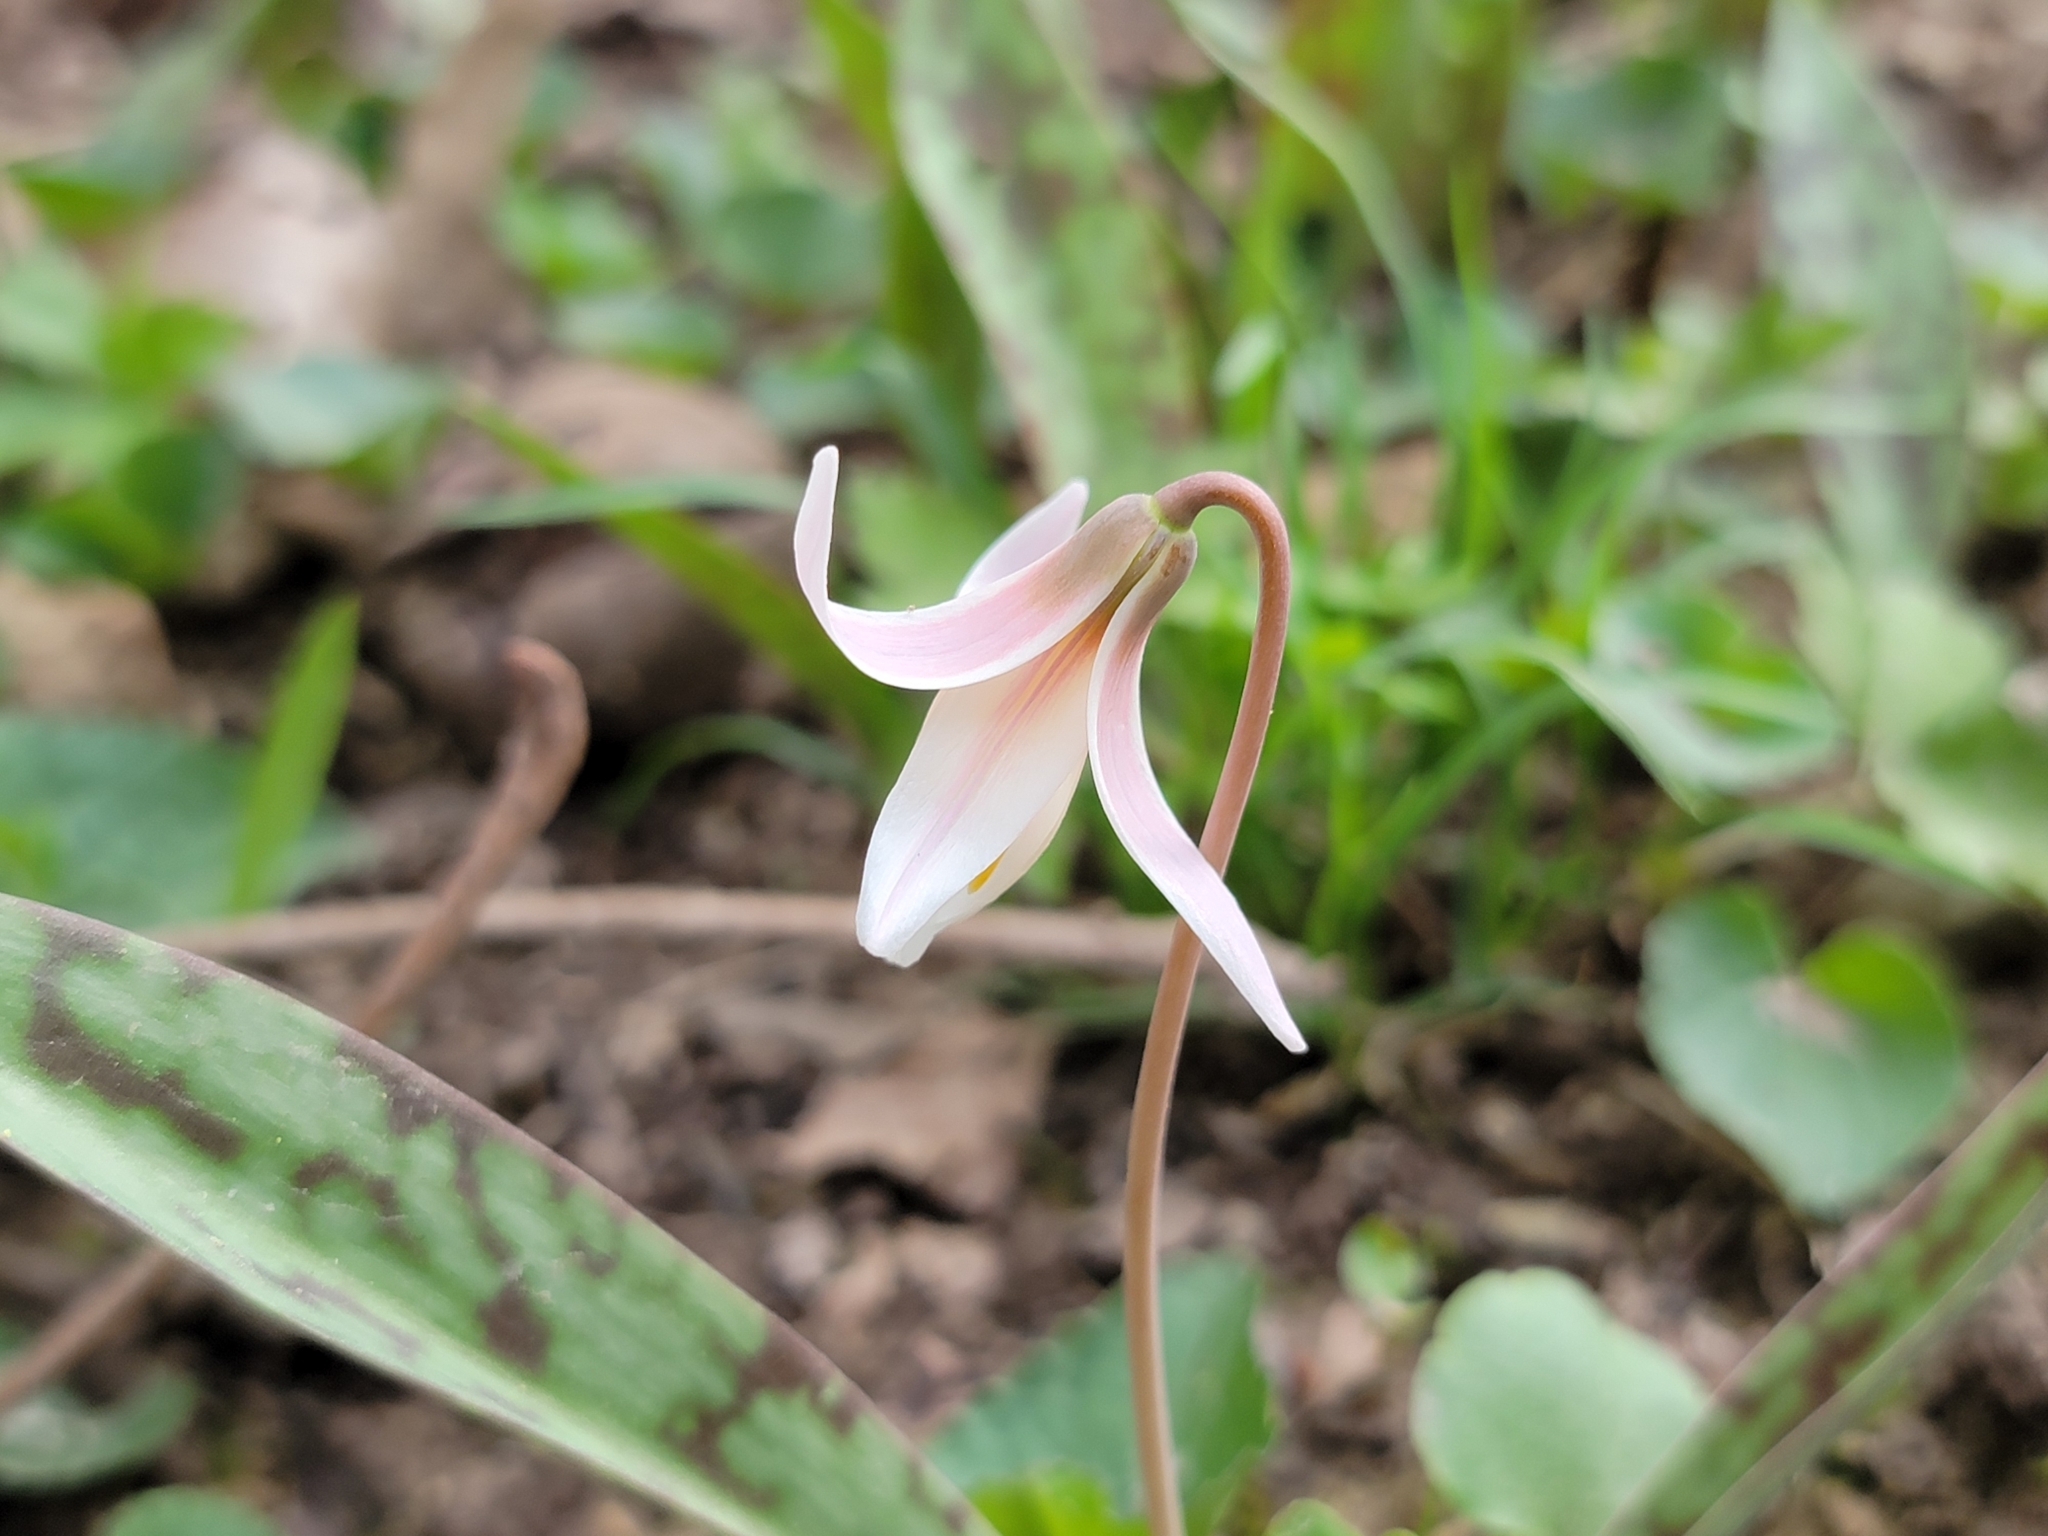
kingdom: Plantae
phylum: Tracheophyta
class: Liliopsida
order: Liliales
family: Liliaceae
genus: Erythronium
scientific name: Erythronium albidum
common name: White trout-lily
